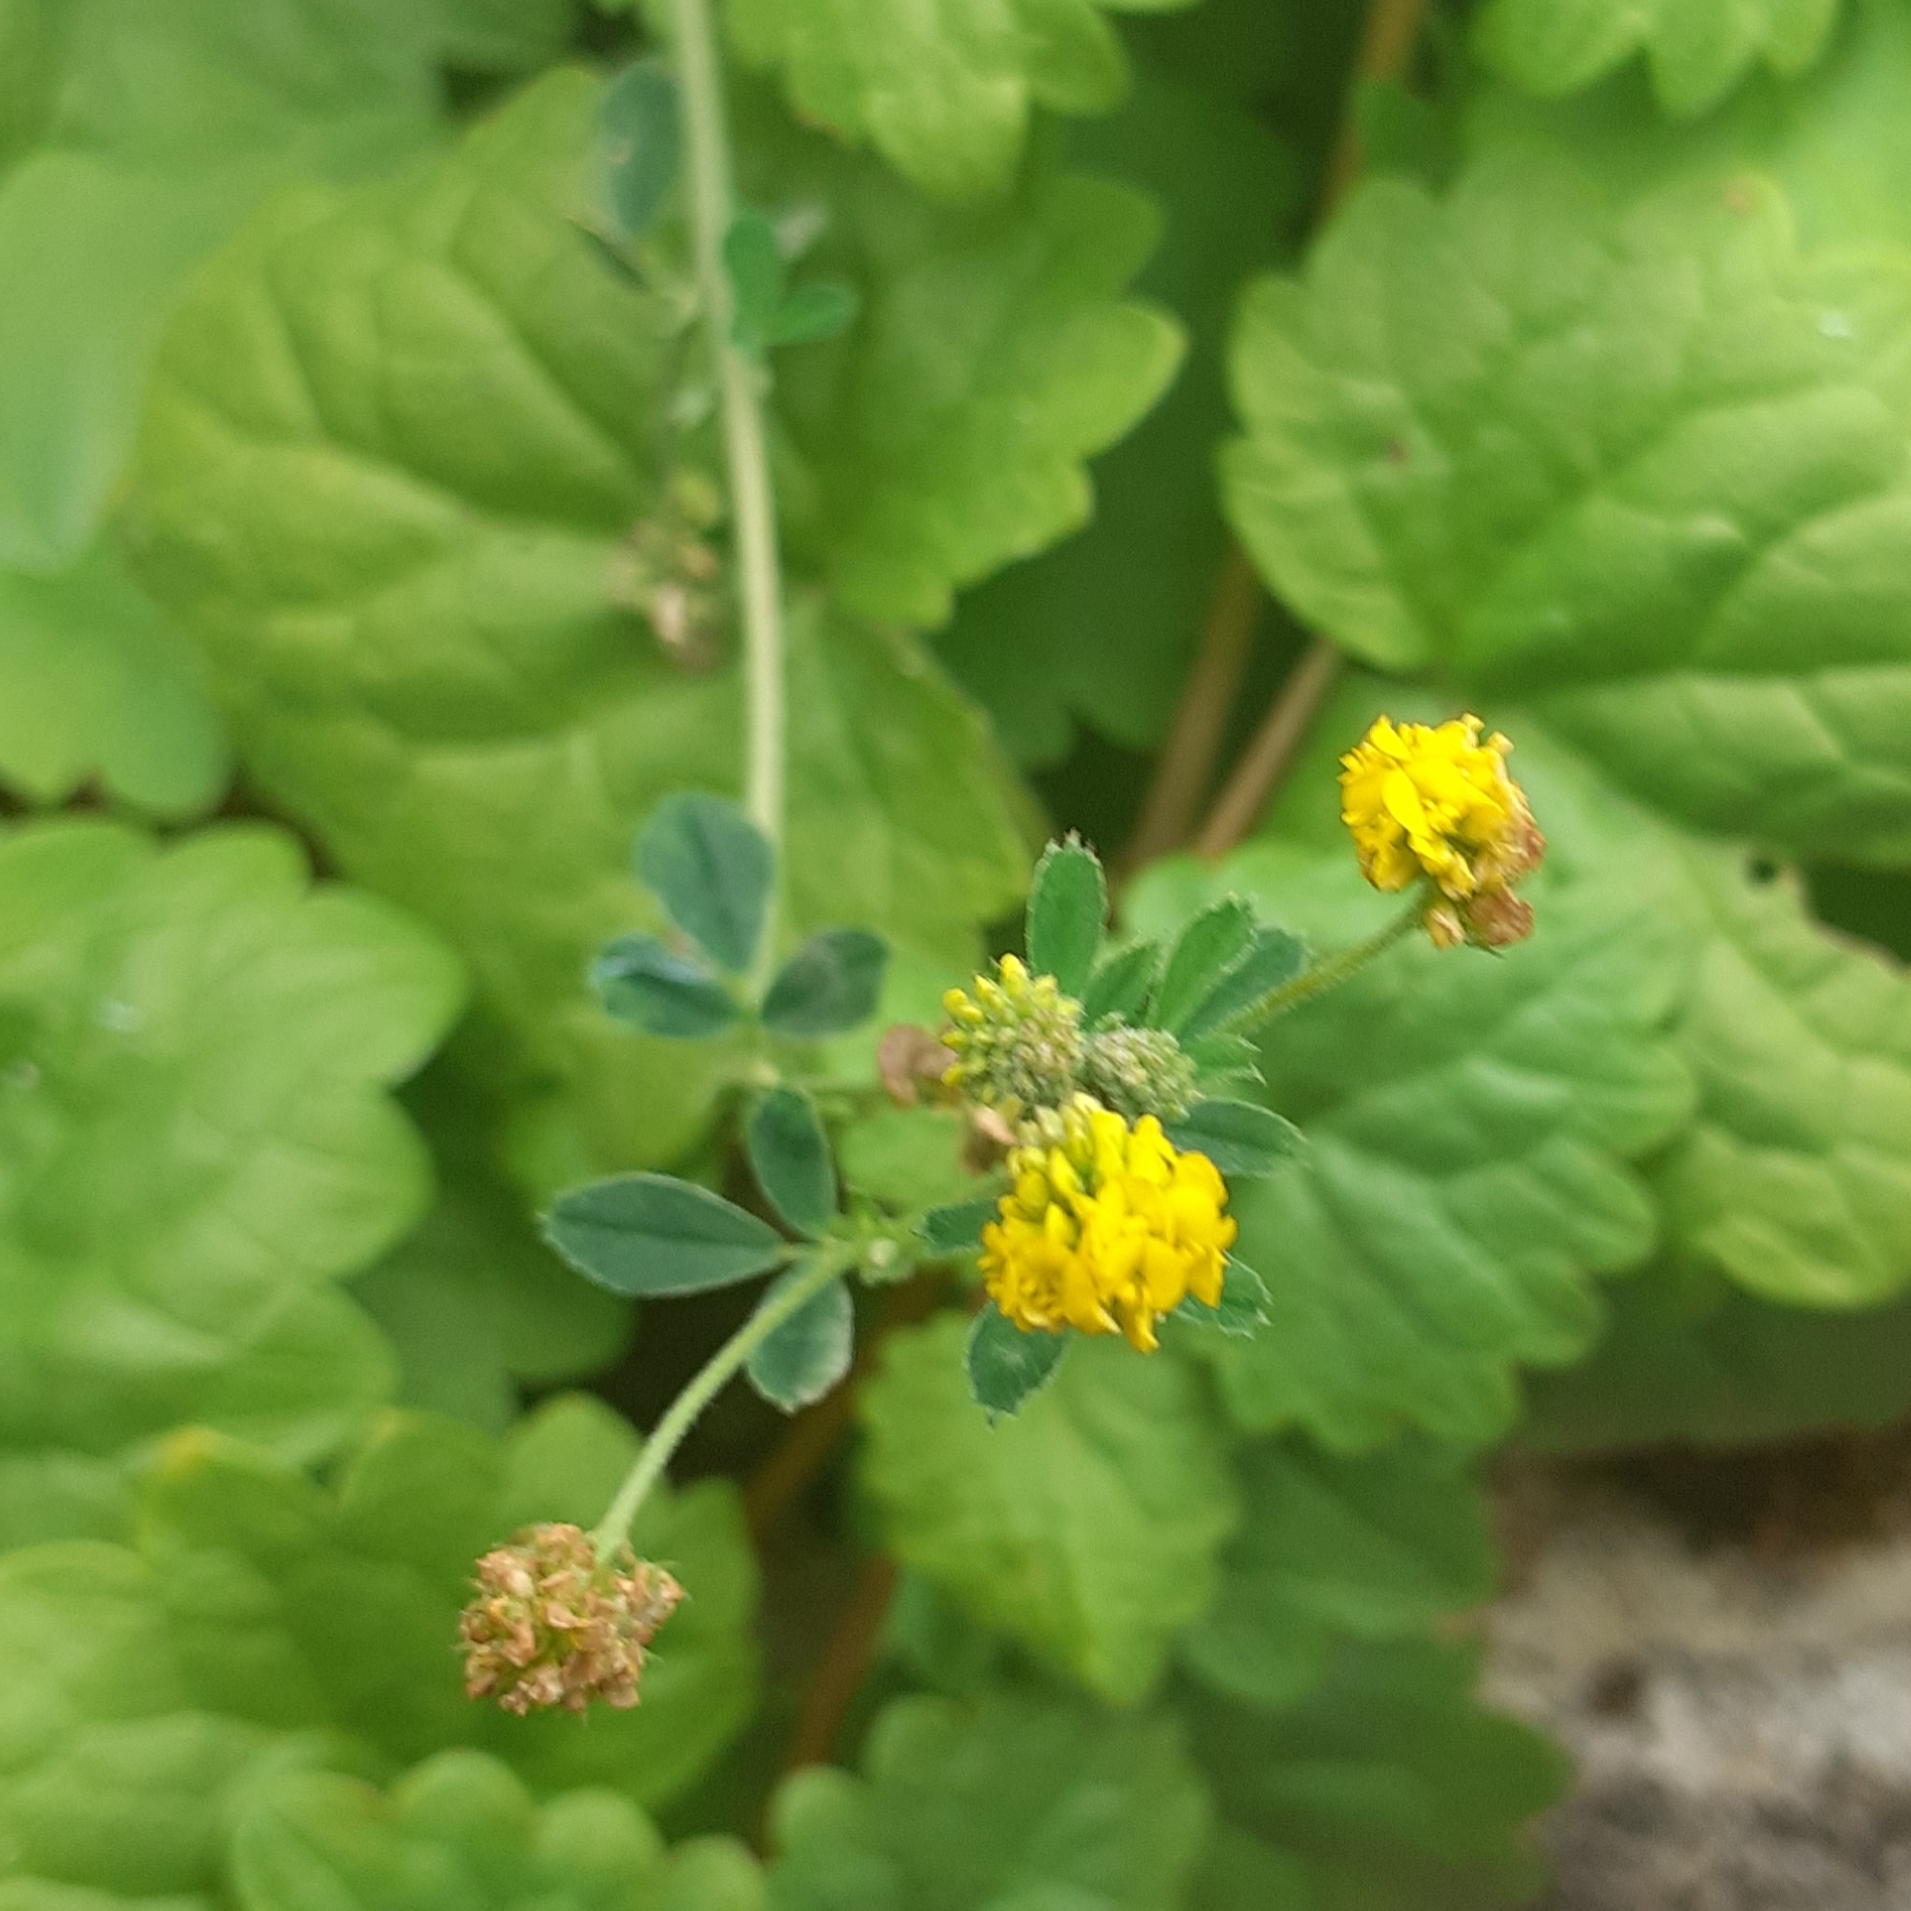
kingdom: Plantae
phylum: Tracheophyta
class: Magnoliopsida
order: Fabales
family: Fabaceae
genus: Medicago
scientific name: Medicago lupulina
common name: Black medick
